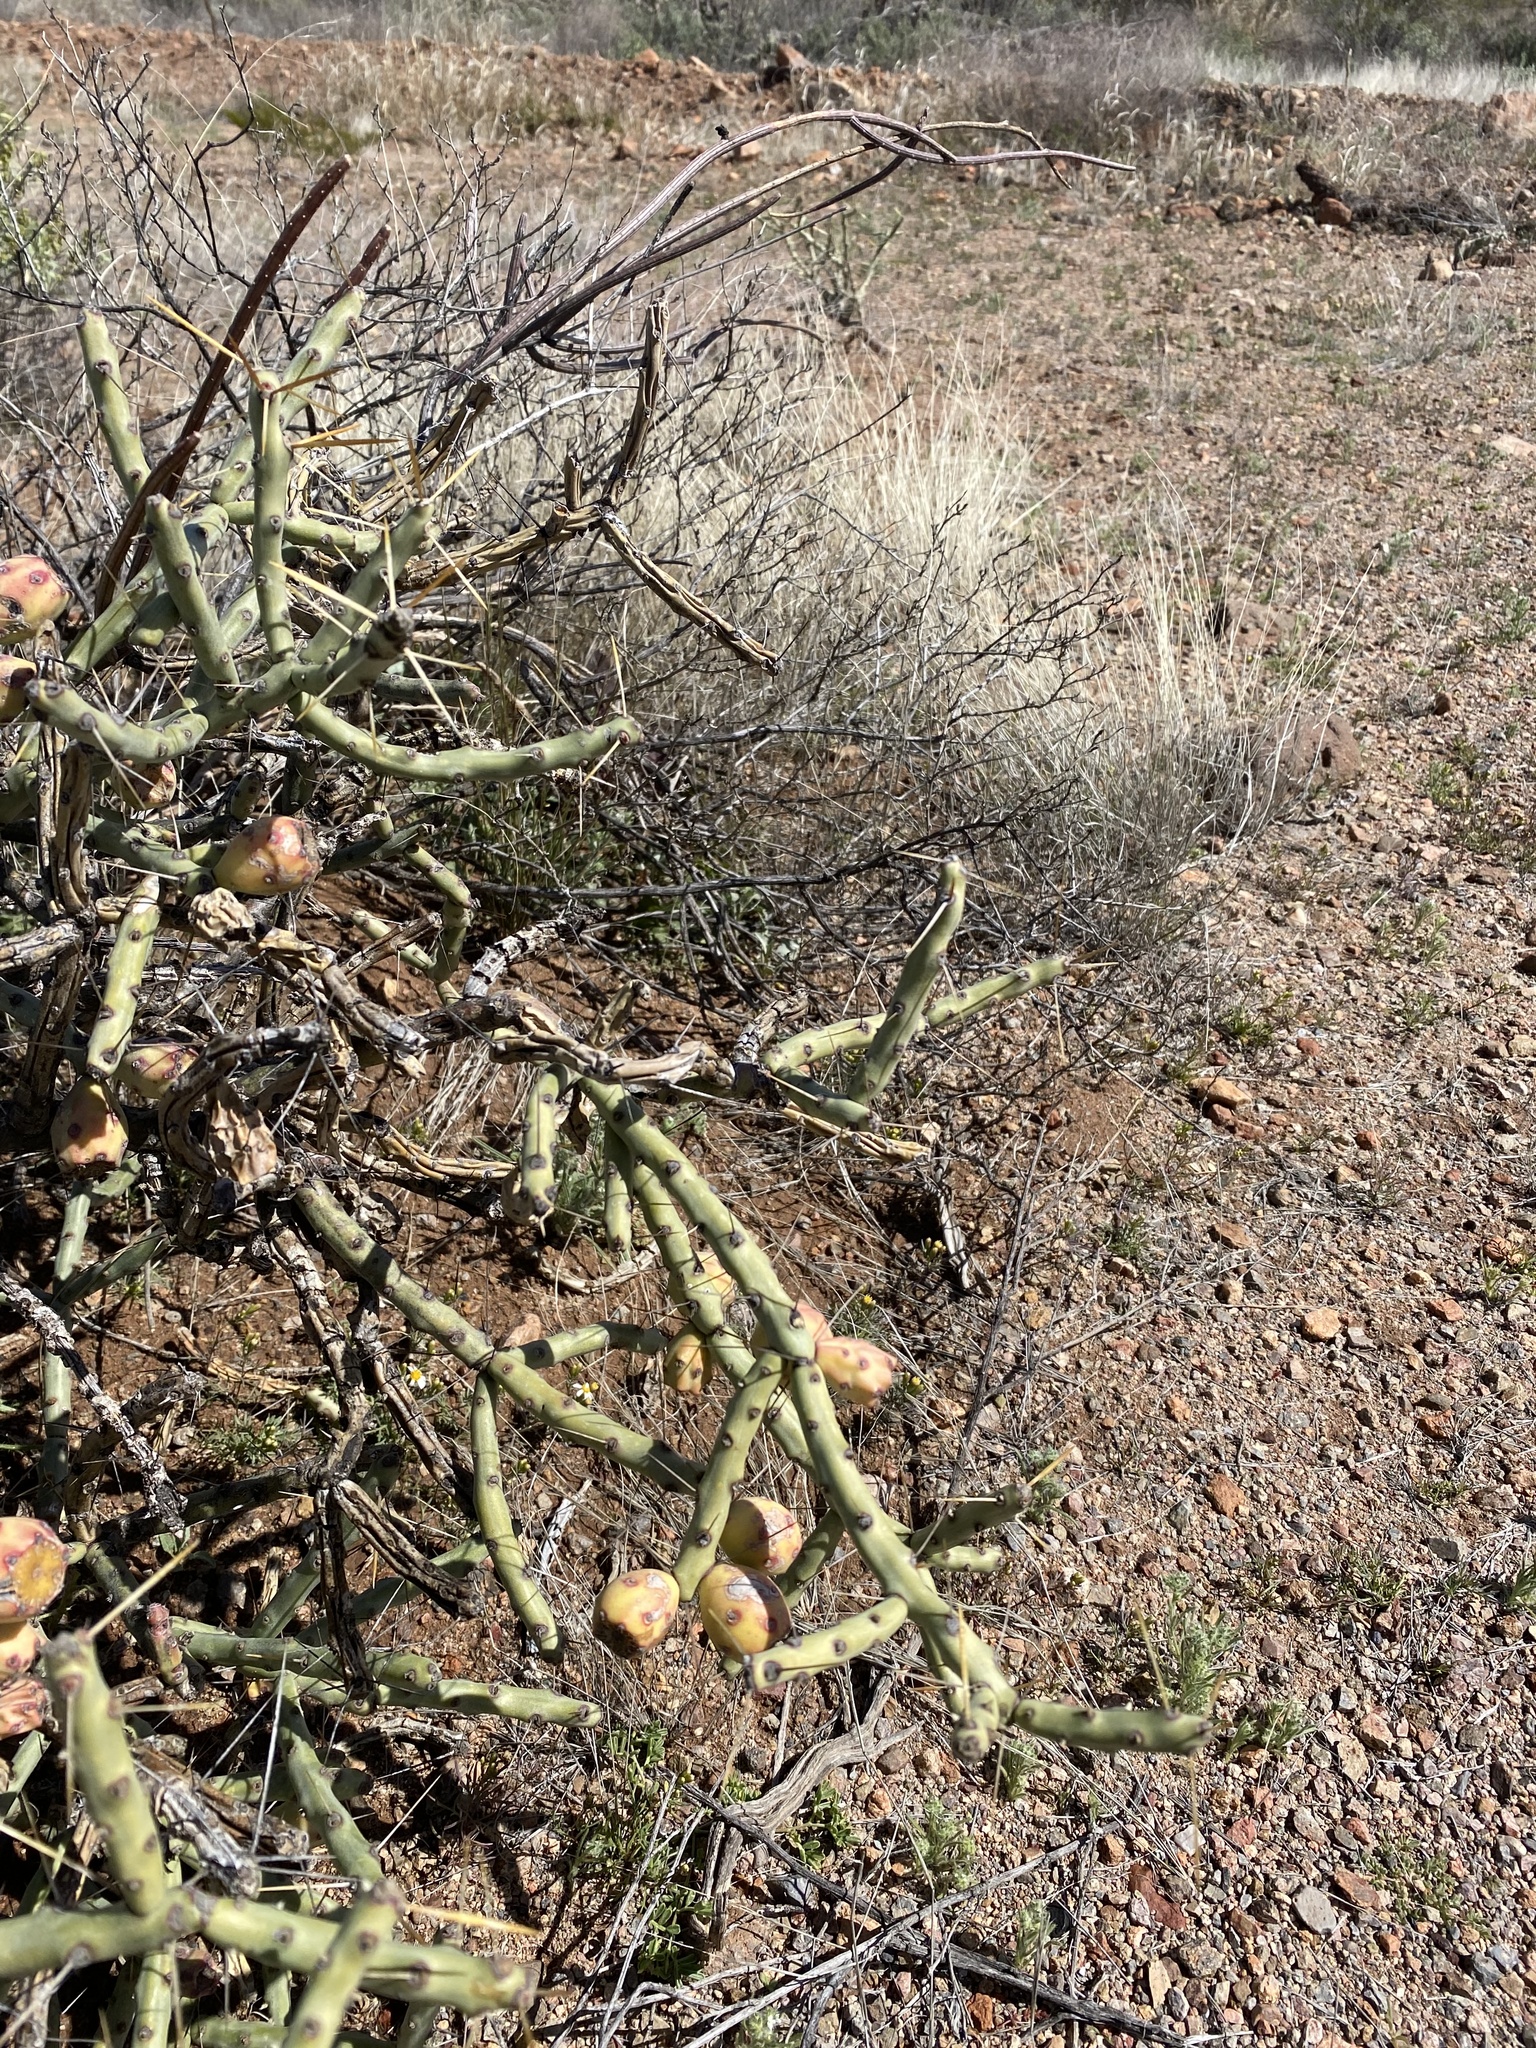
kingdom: Plantae
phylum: Tracheophyta
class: Magnoliopsida
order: Caryophyllales
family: Cactaceae
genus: Cylindropuntia
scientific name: Cylindropuntia leptocaulis
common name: Christmas cactus
